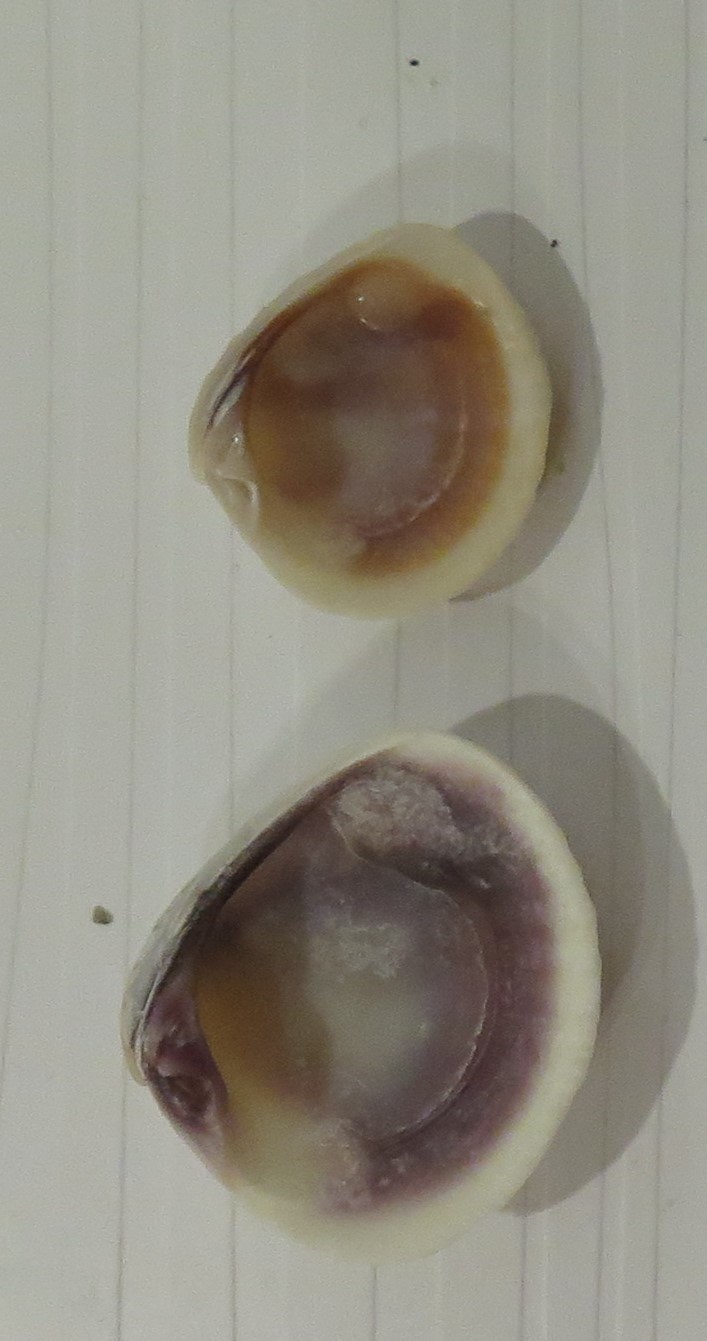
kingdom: Animalia
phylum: Mollusca
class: Bivalvia
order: Venerida
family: Veneridae
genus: Chione
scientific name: Chione elevata
